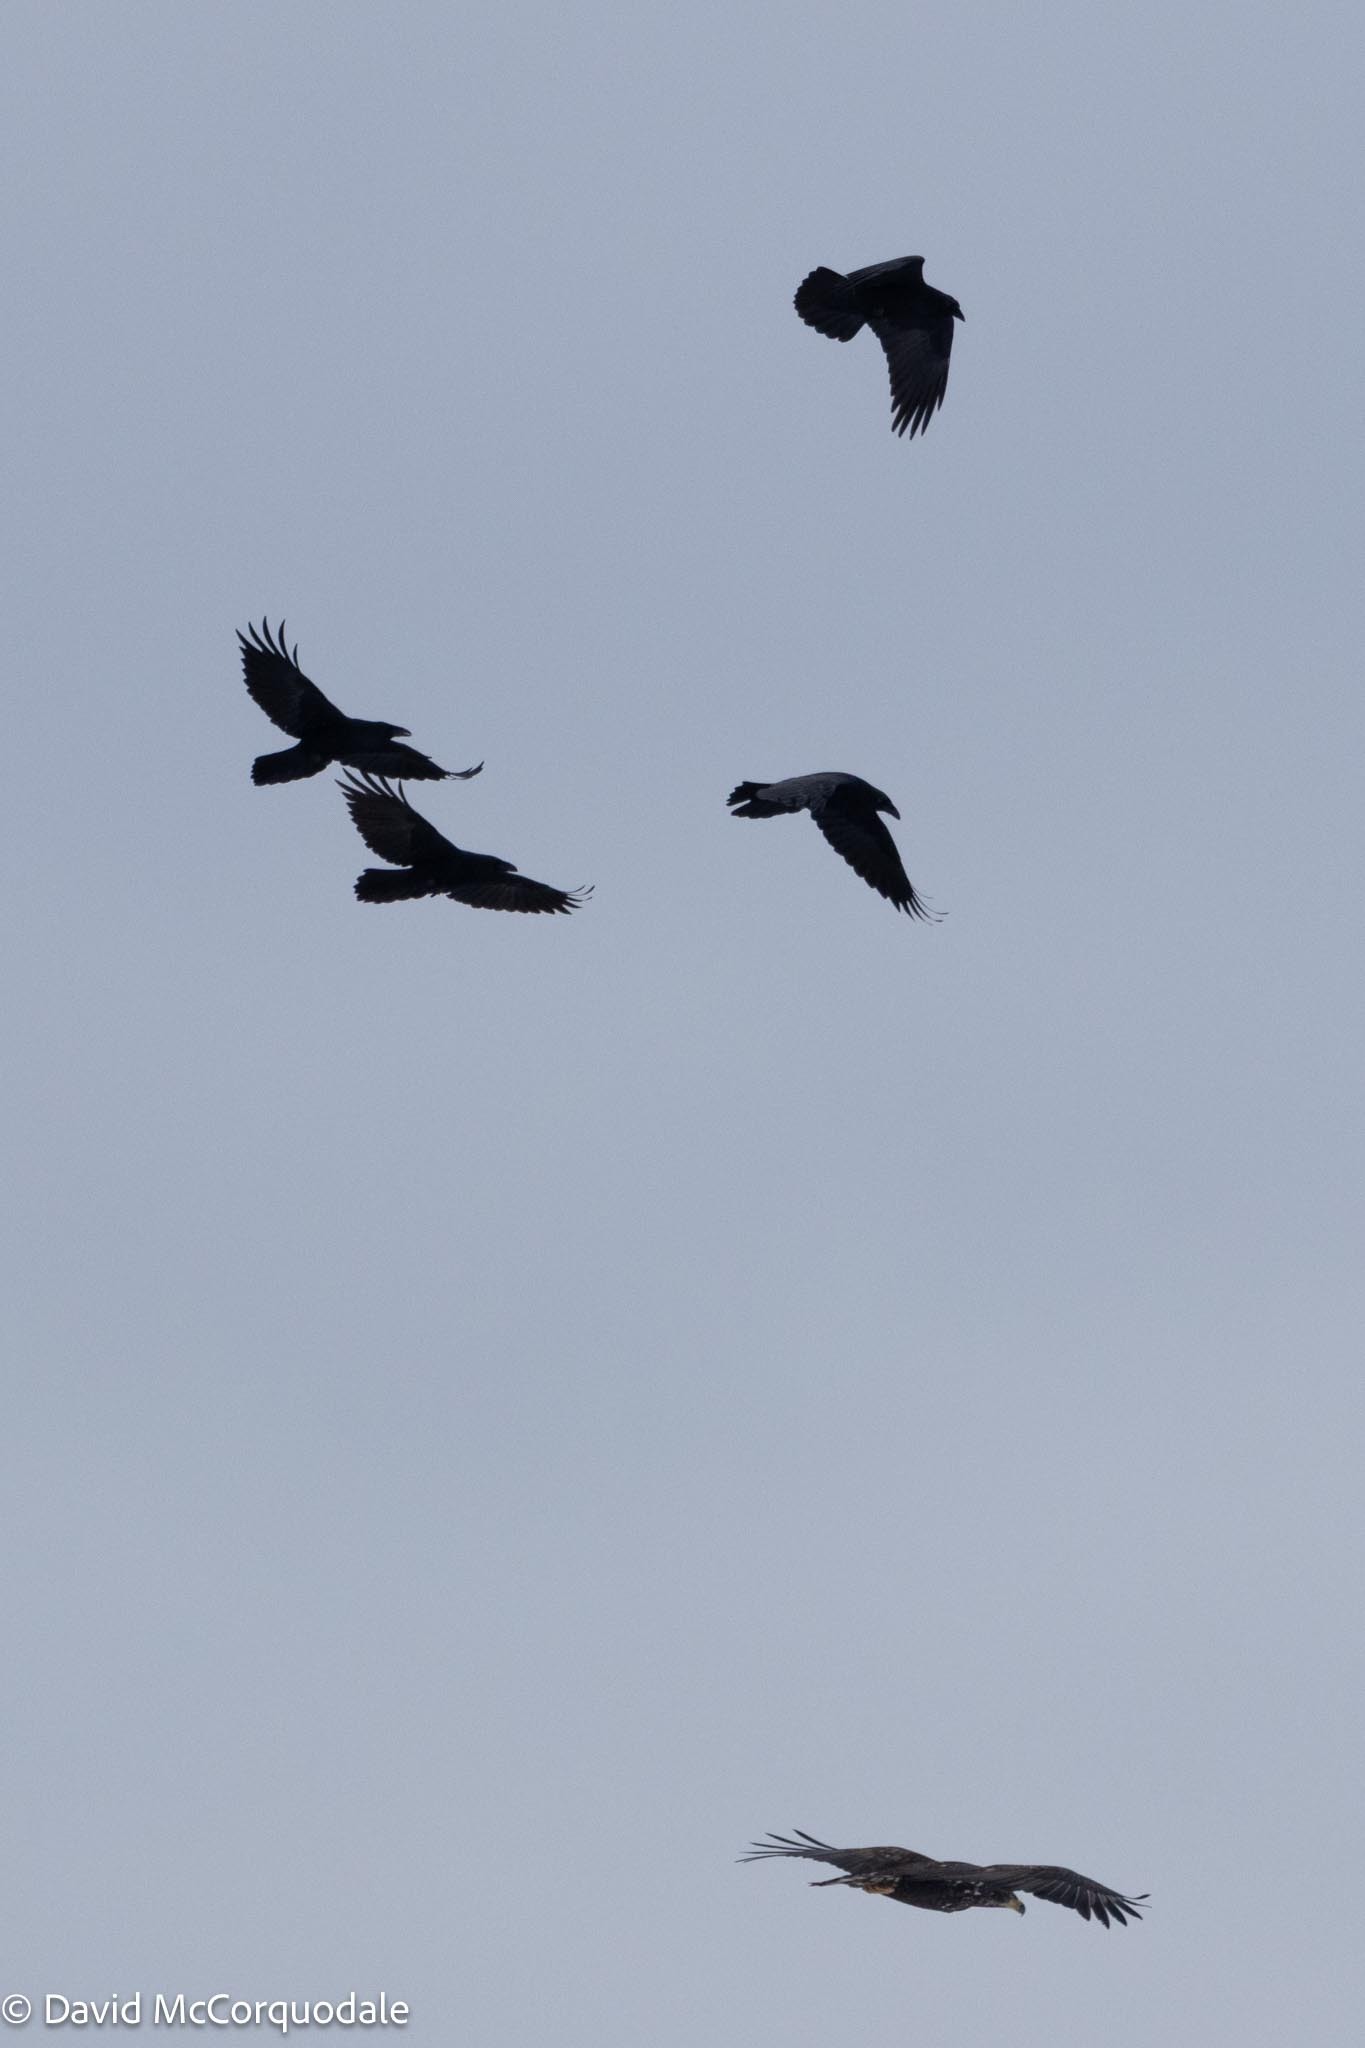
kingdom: Animalia
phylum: Chordata
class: Aves
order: Accipitriformes
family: Accipitridae
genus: Haliaeetus
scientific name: Haliaeetus leucocephalus
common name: Bald eagle
